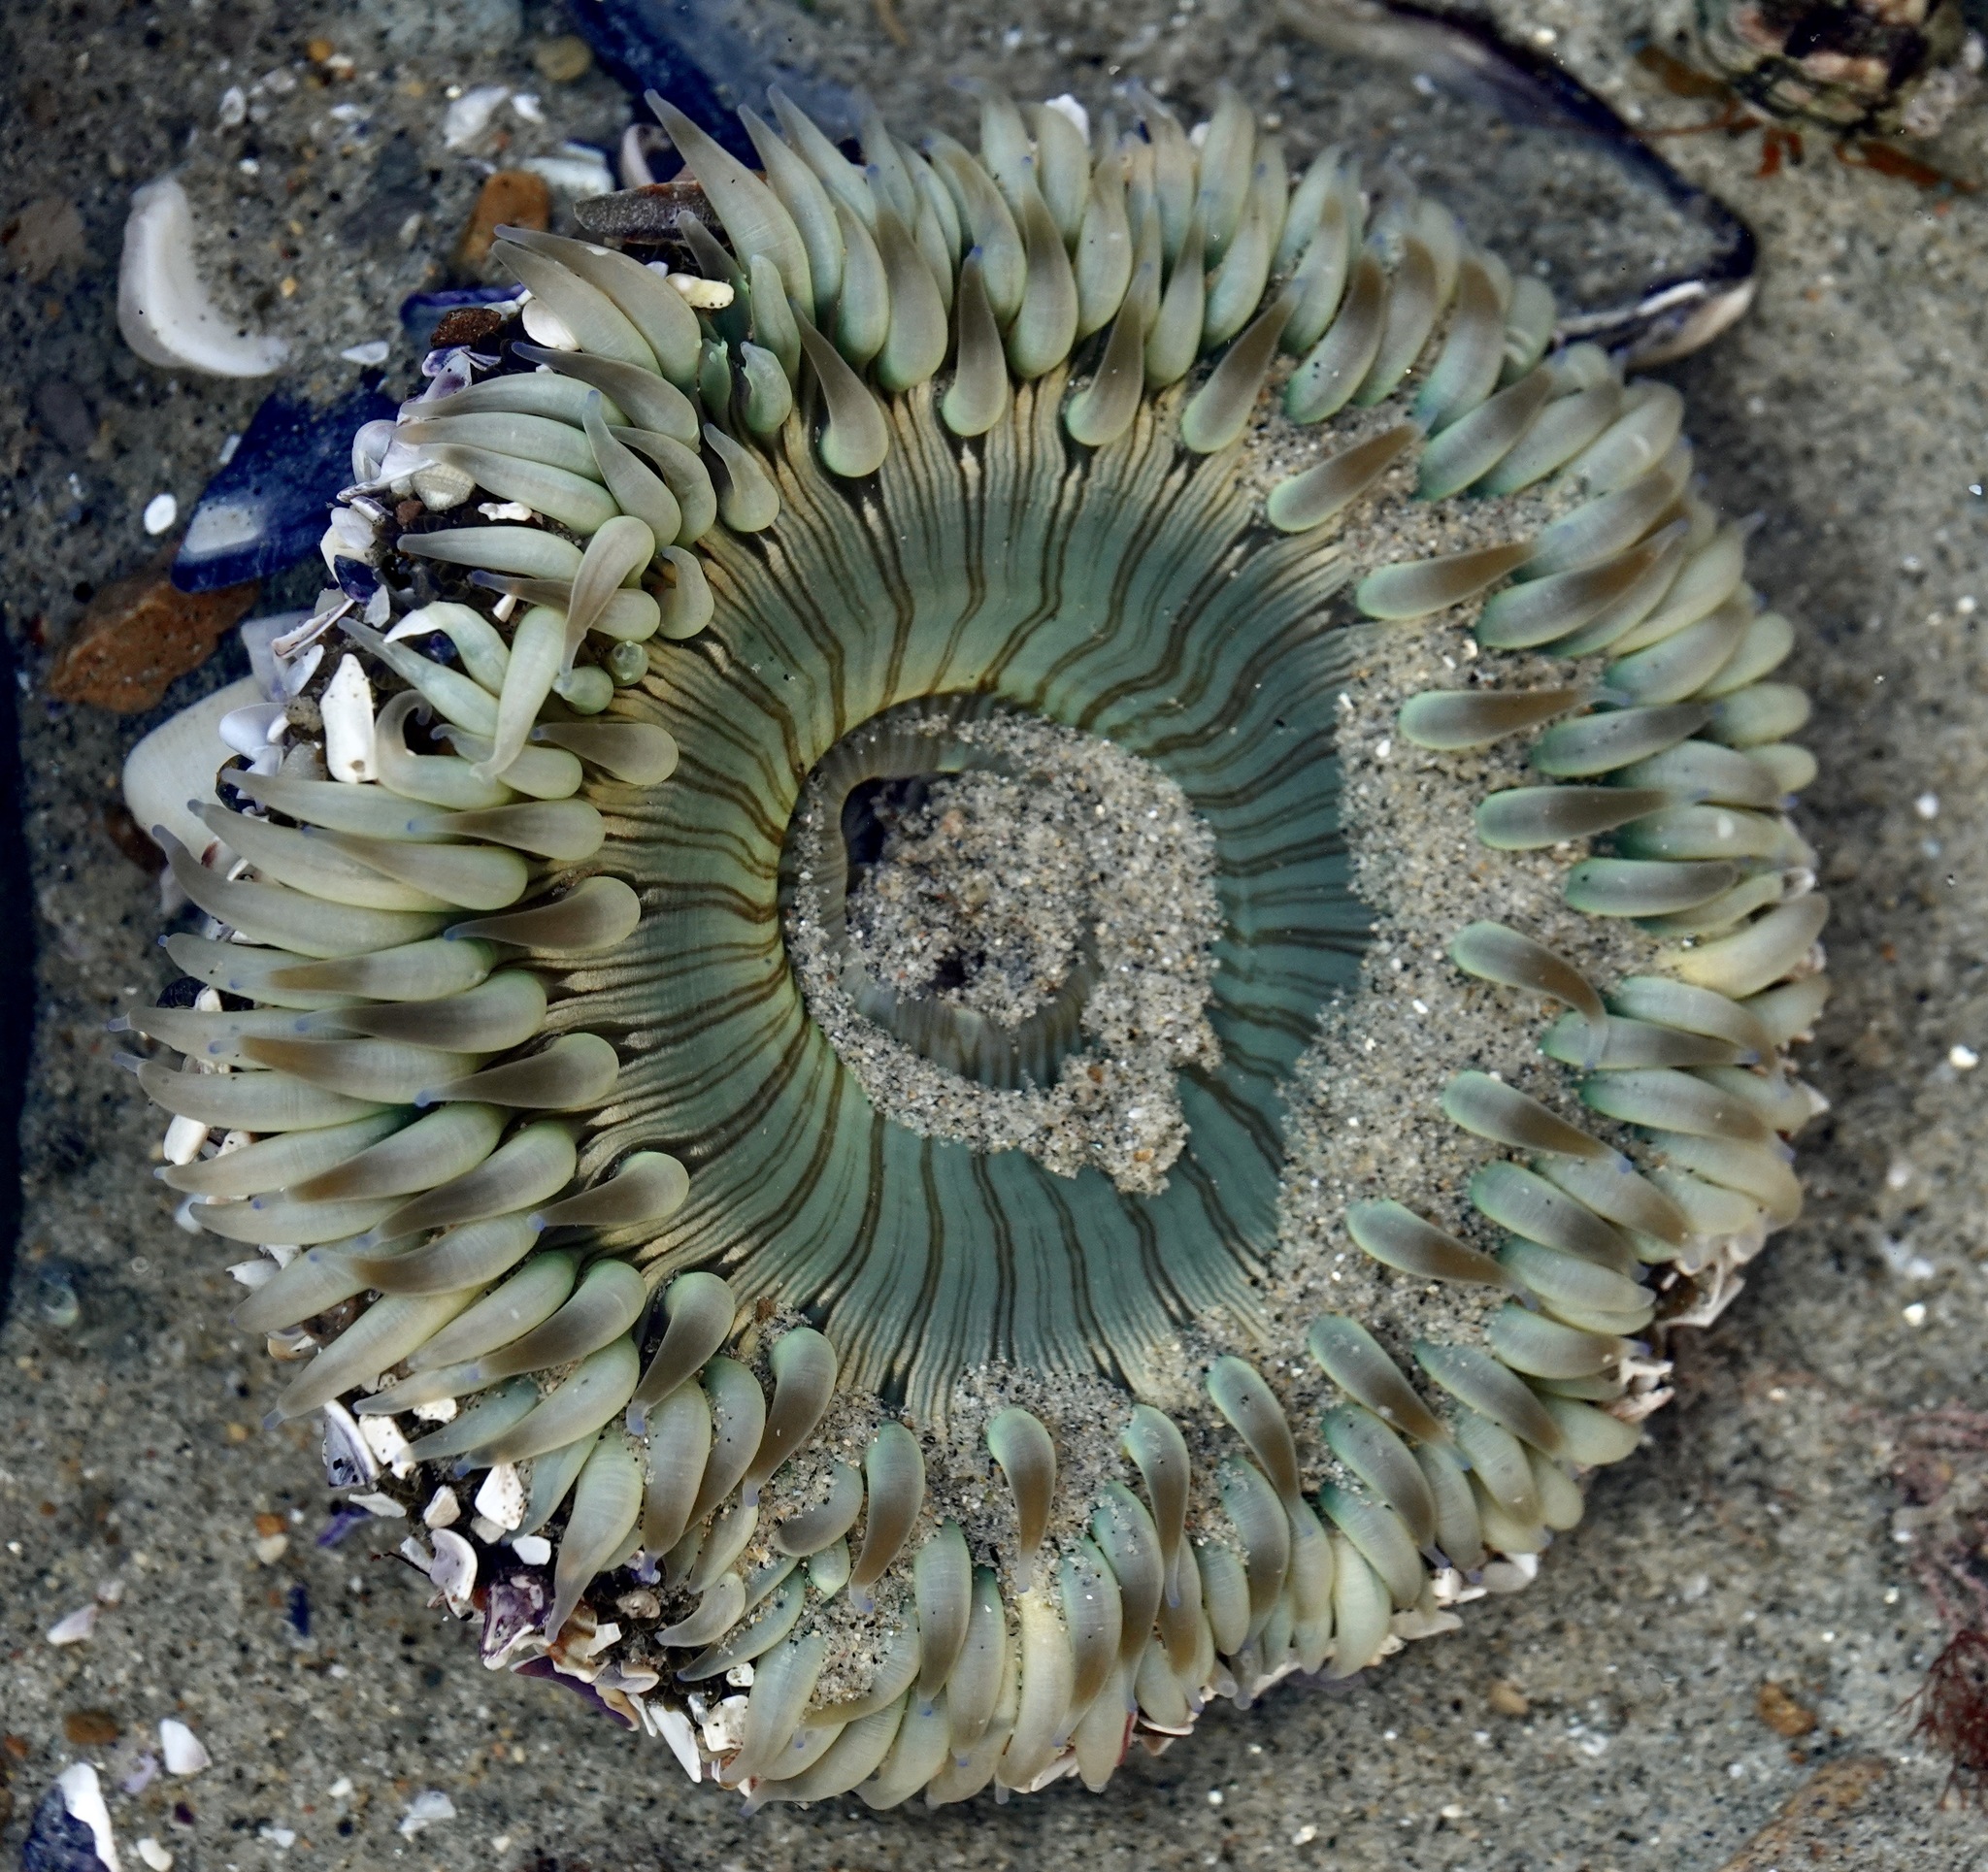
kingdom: Animalia
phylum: Cnidaria
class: Anthozoa
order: Actiniaria
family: Actiniidae
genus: Anthopleura
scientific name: Anthopleura sola
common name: Sun anemone
